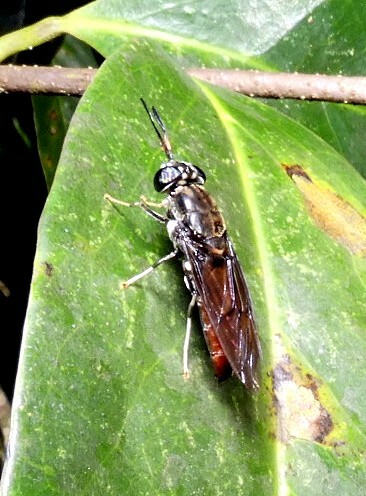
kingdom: Animalia
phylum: Arthropoda
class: Insecta
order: Diptera
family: Stratiomyidae
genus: Hermetia
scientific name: Hermetia illucens
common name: Black soldier fly
